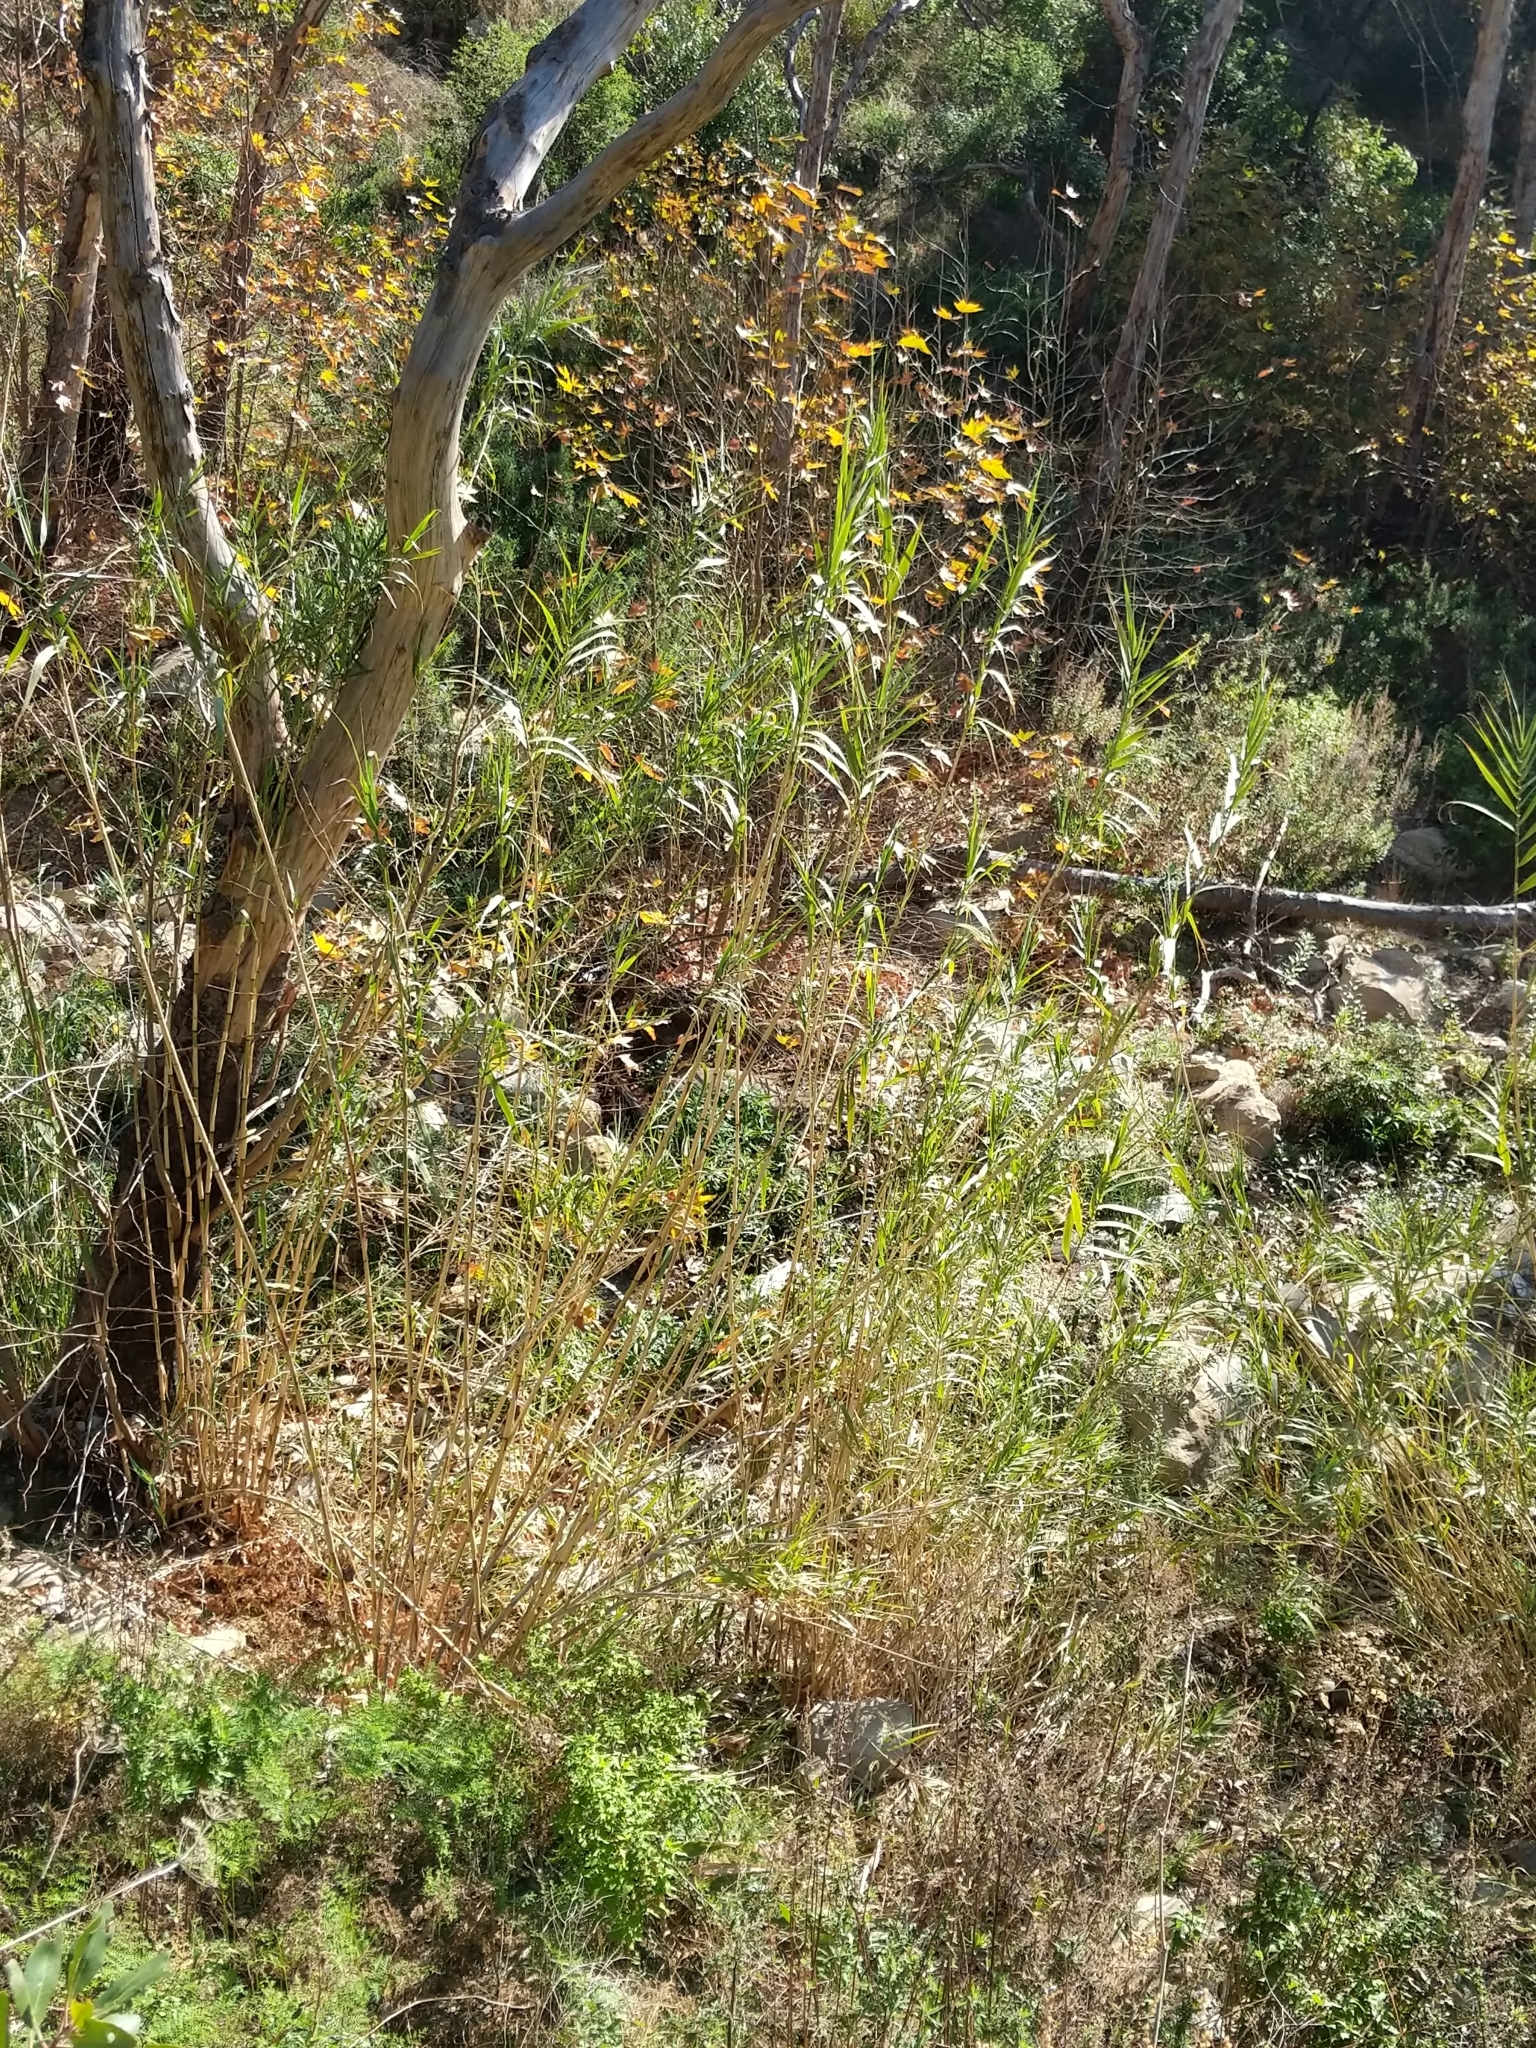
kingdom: Plantae
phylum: Tracheophyta
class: Liliopsida
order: Poales
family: Poaceae
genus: Arundo
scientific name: Arundo donax
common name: Giant reed
